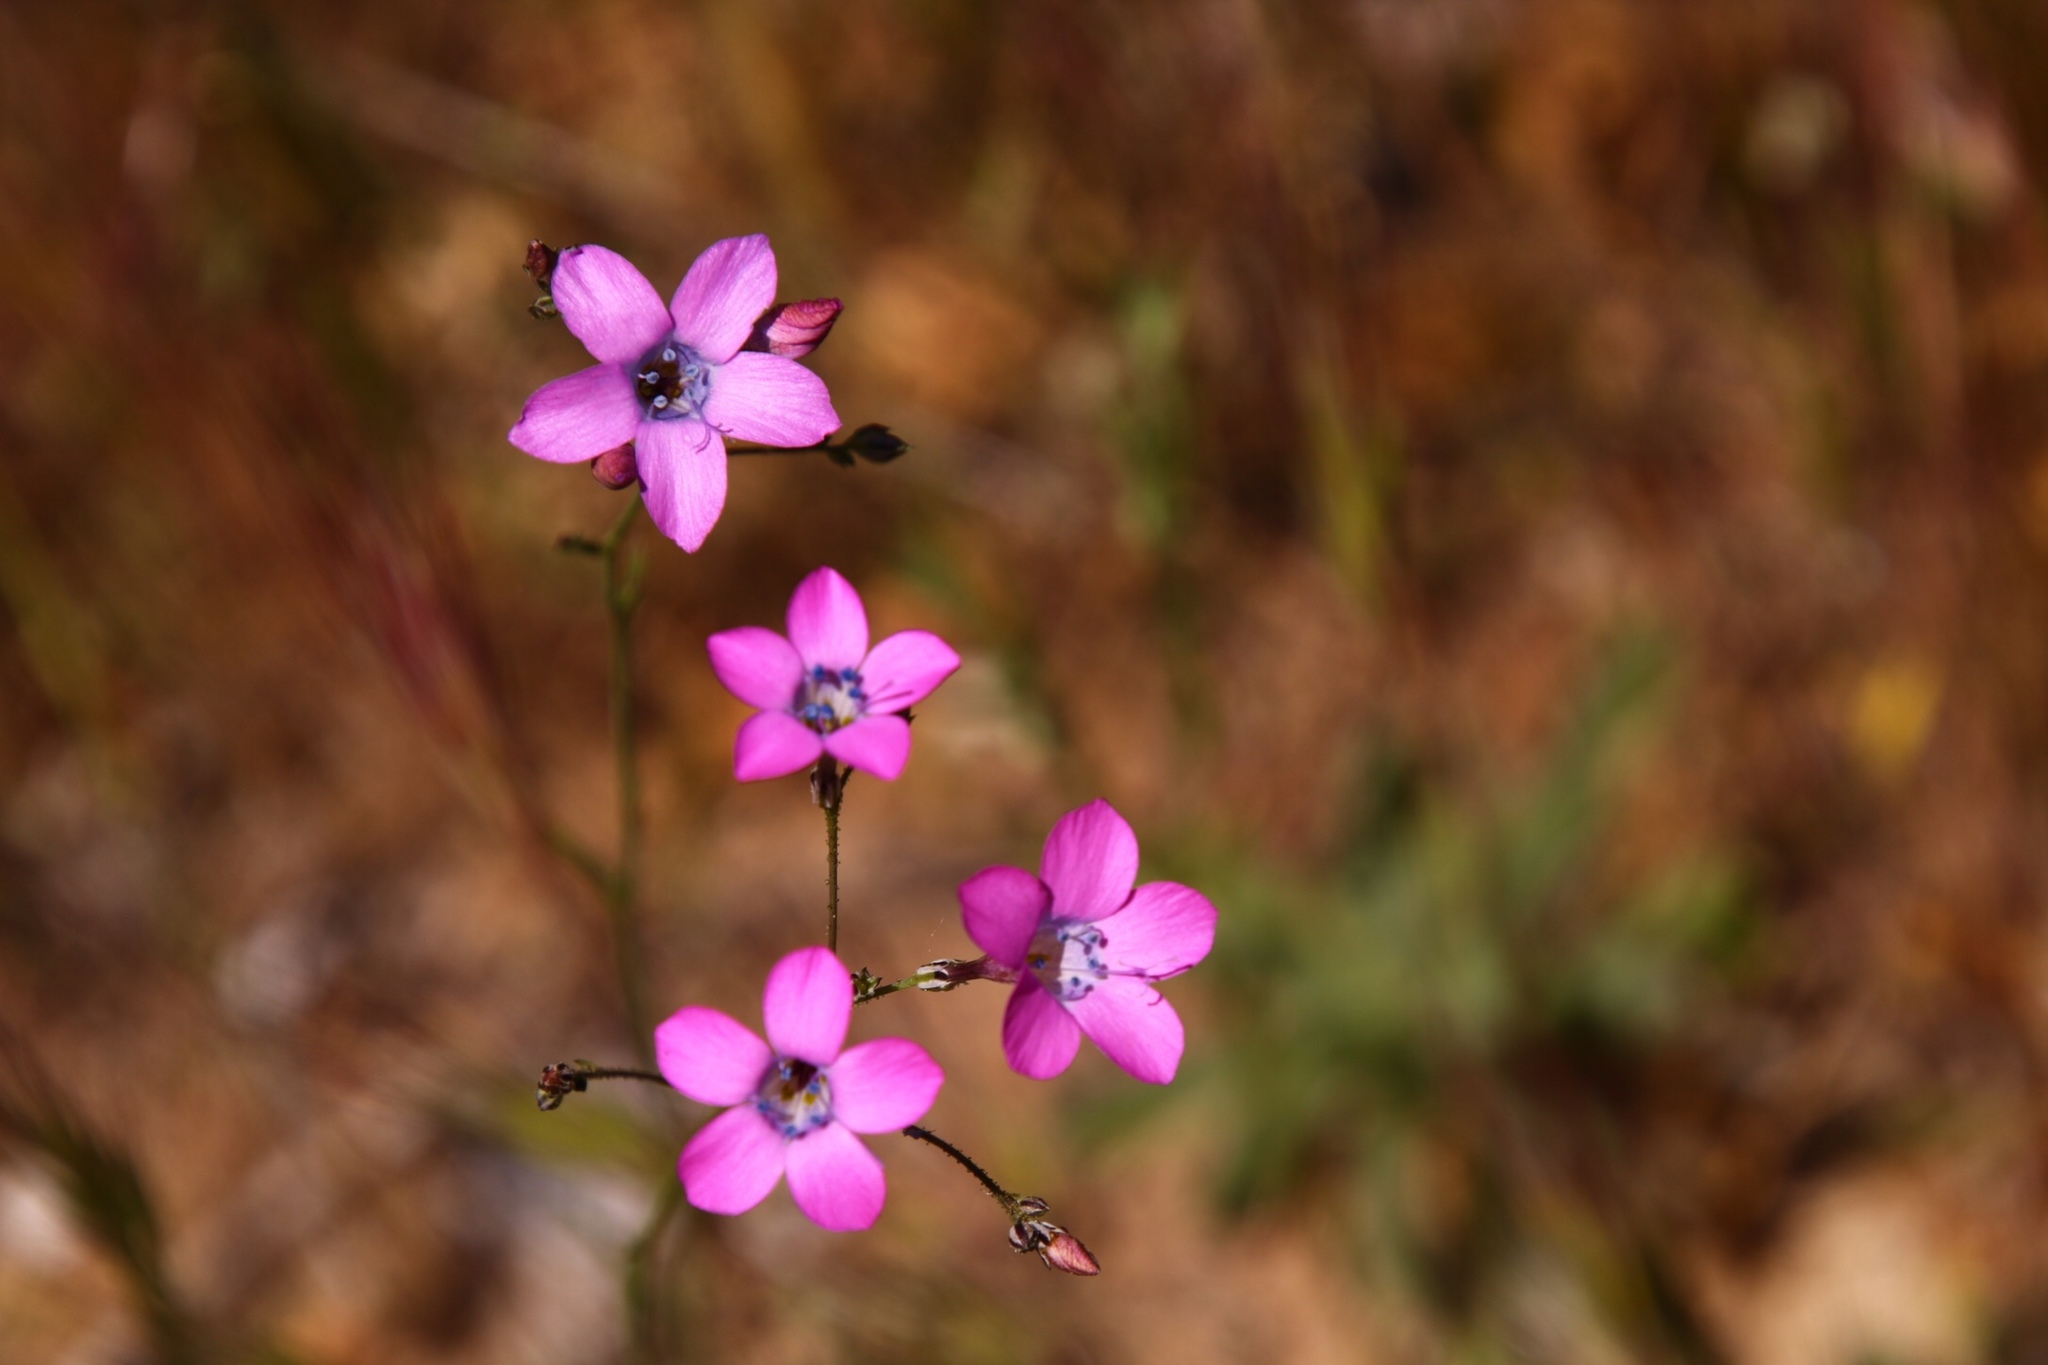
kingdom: Plantae
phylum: Tracheophyta
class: Magnoliopsida
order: Ericales
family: Polemoniaceae
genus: Saltugilia
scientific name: Saltugilia splendens
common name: Grinnell's gilia
